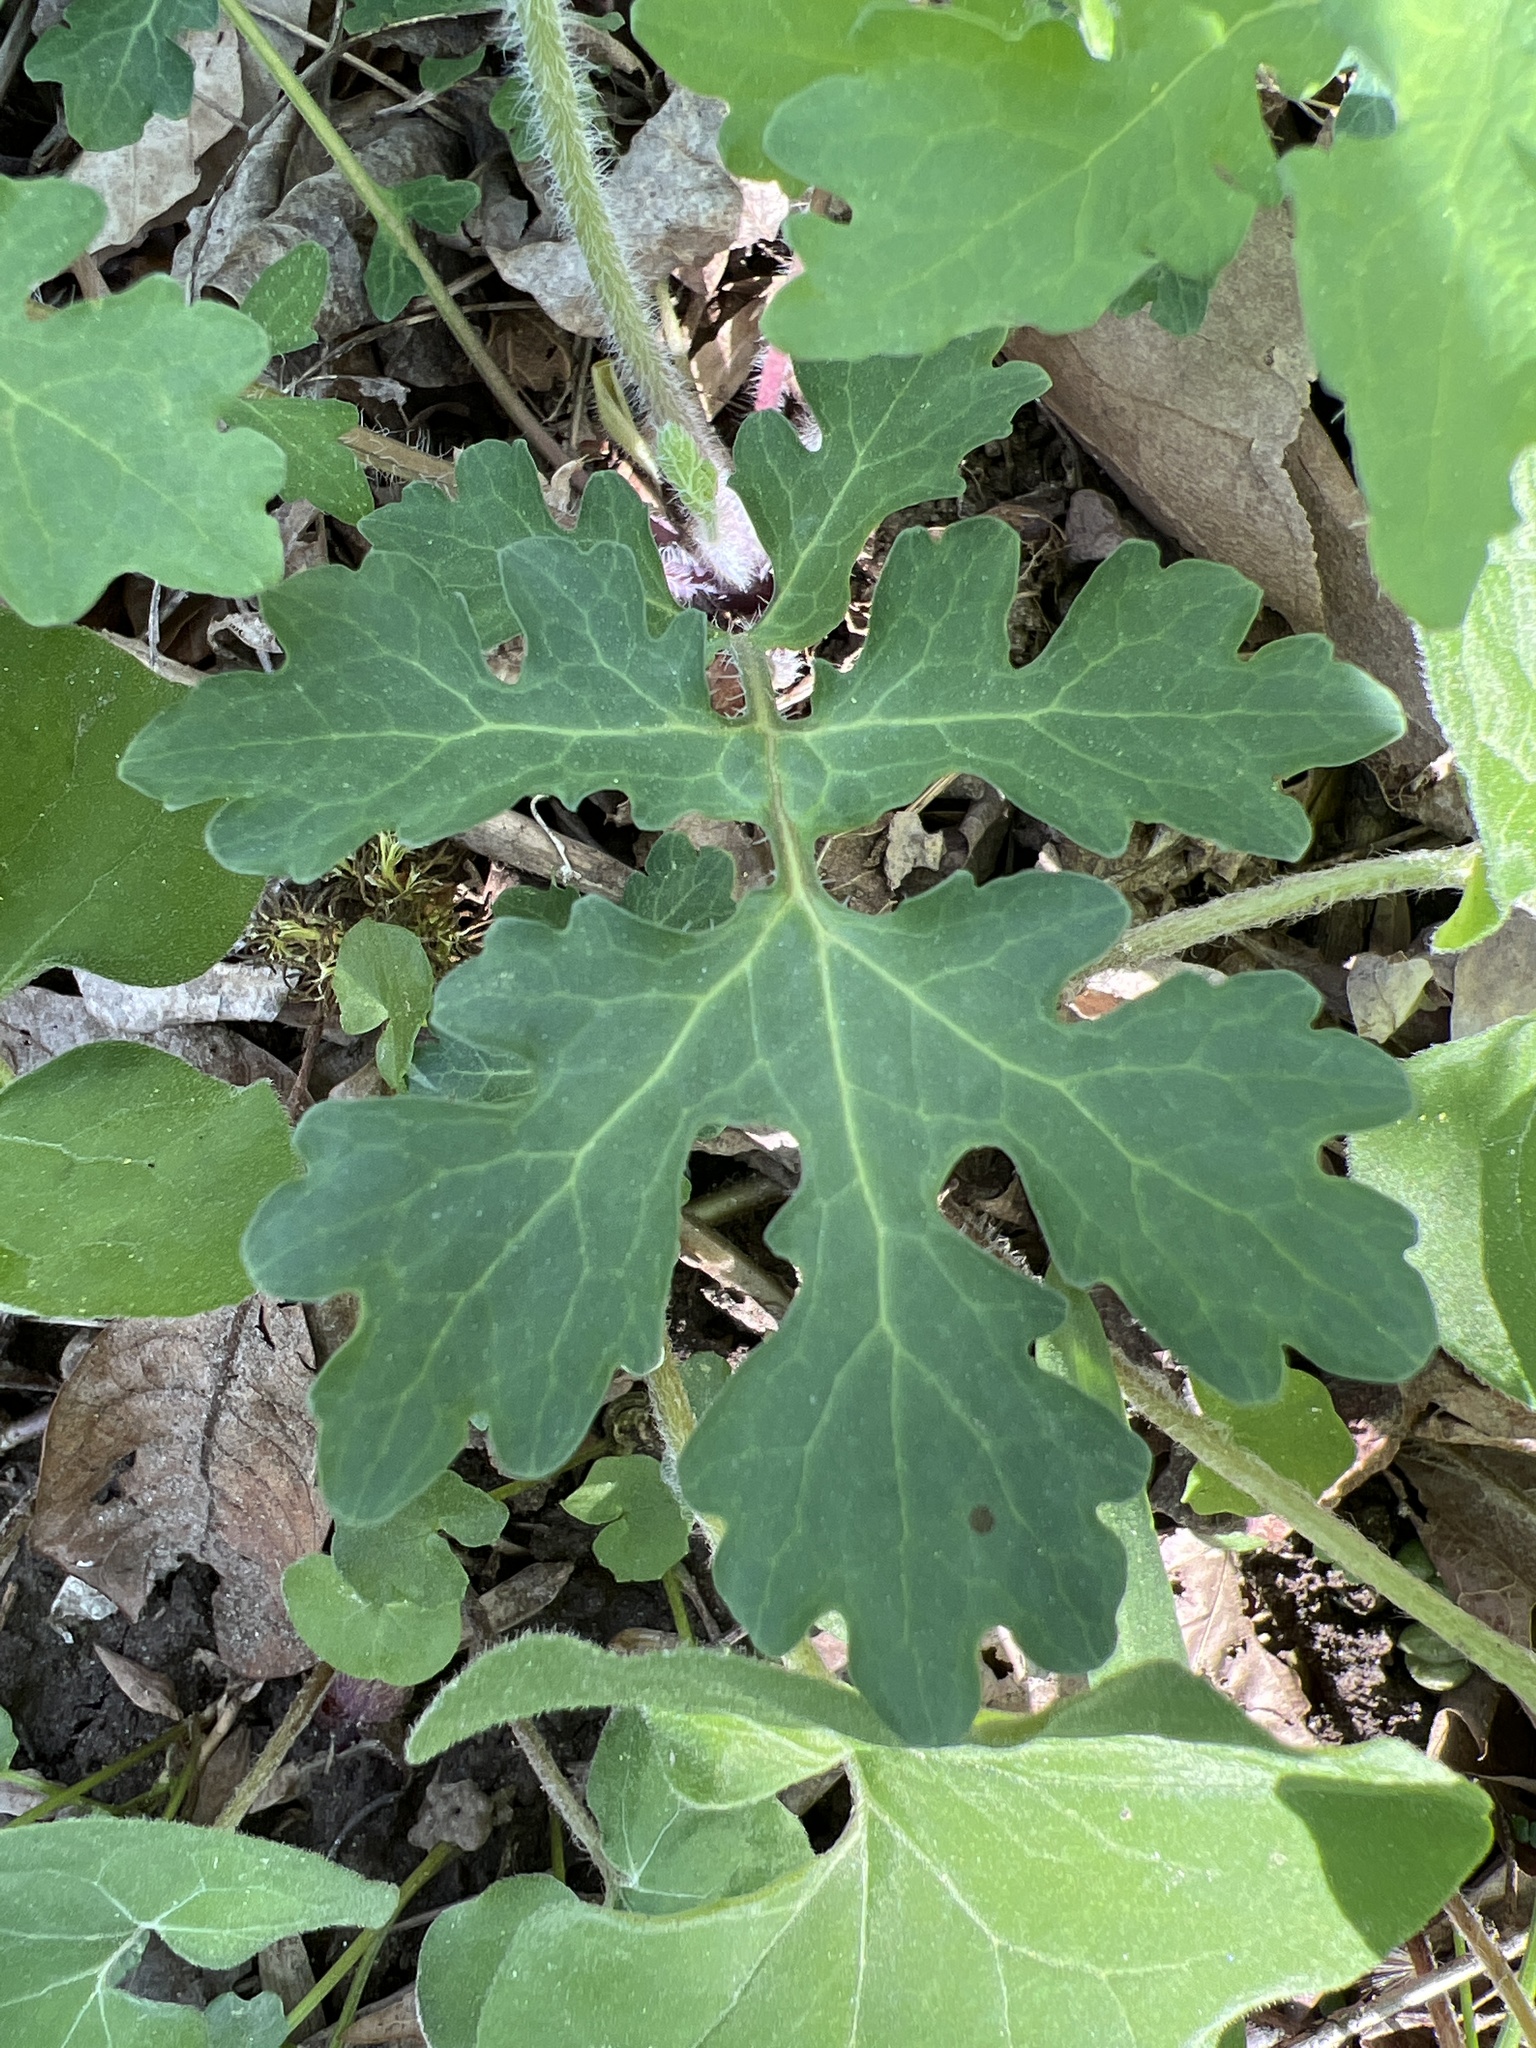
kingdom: Plantae
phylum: Tracheophyta
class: Magnoliopsida
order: Ranunculales
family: Papaveraceae
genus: Stylophorum
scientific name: Stylophorum diphyllum
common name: Celandine poppy
